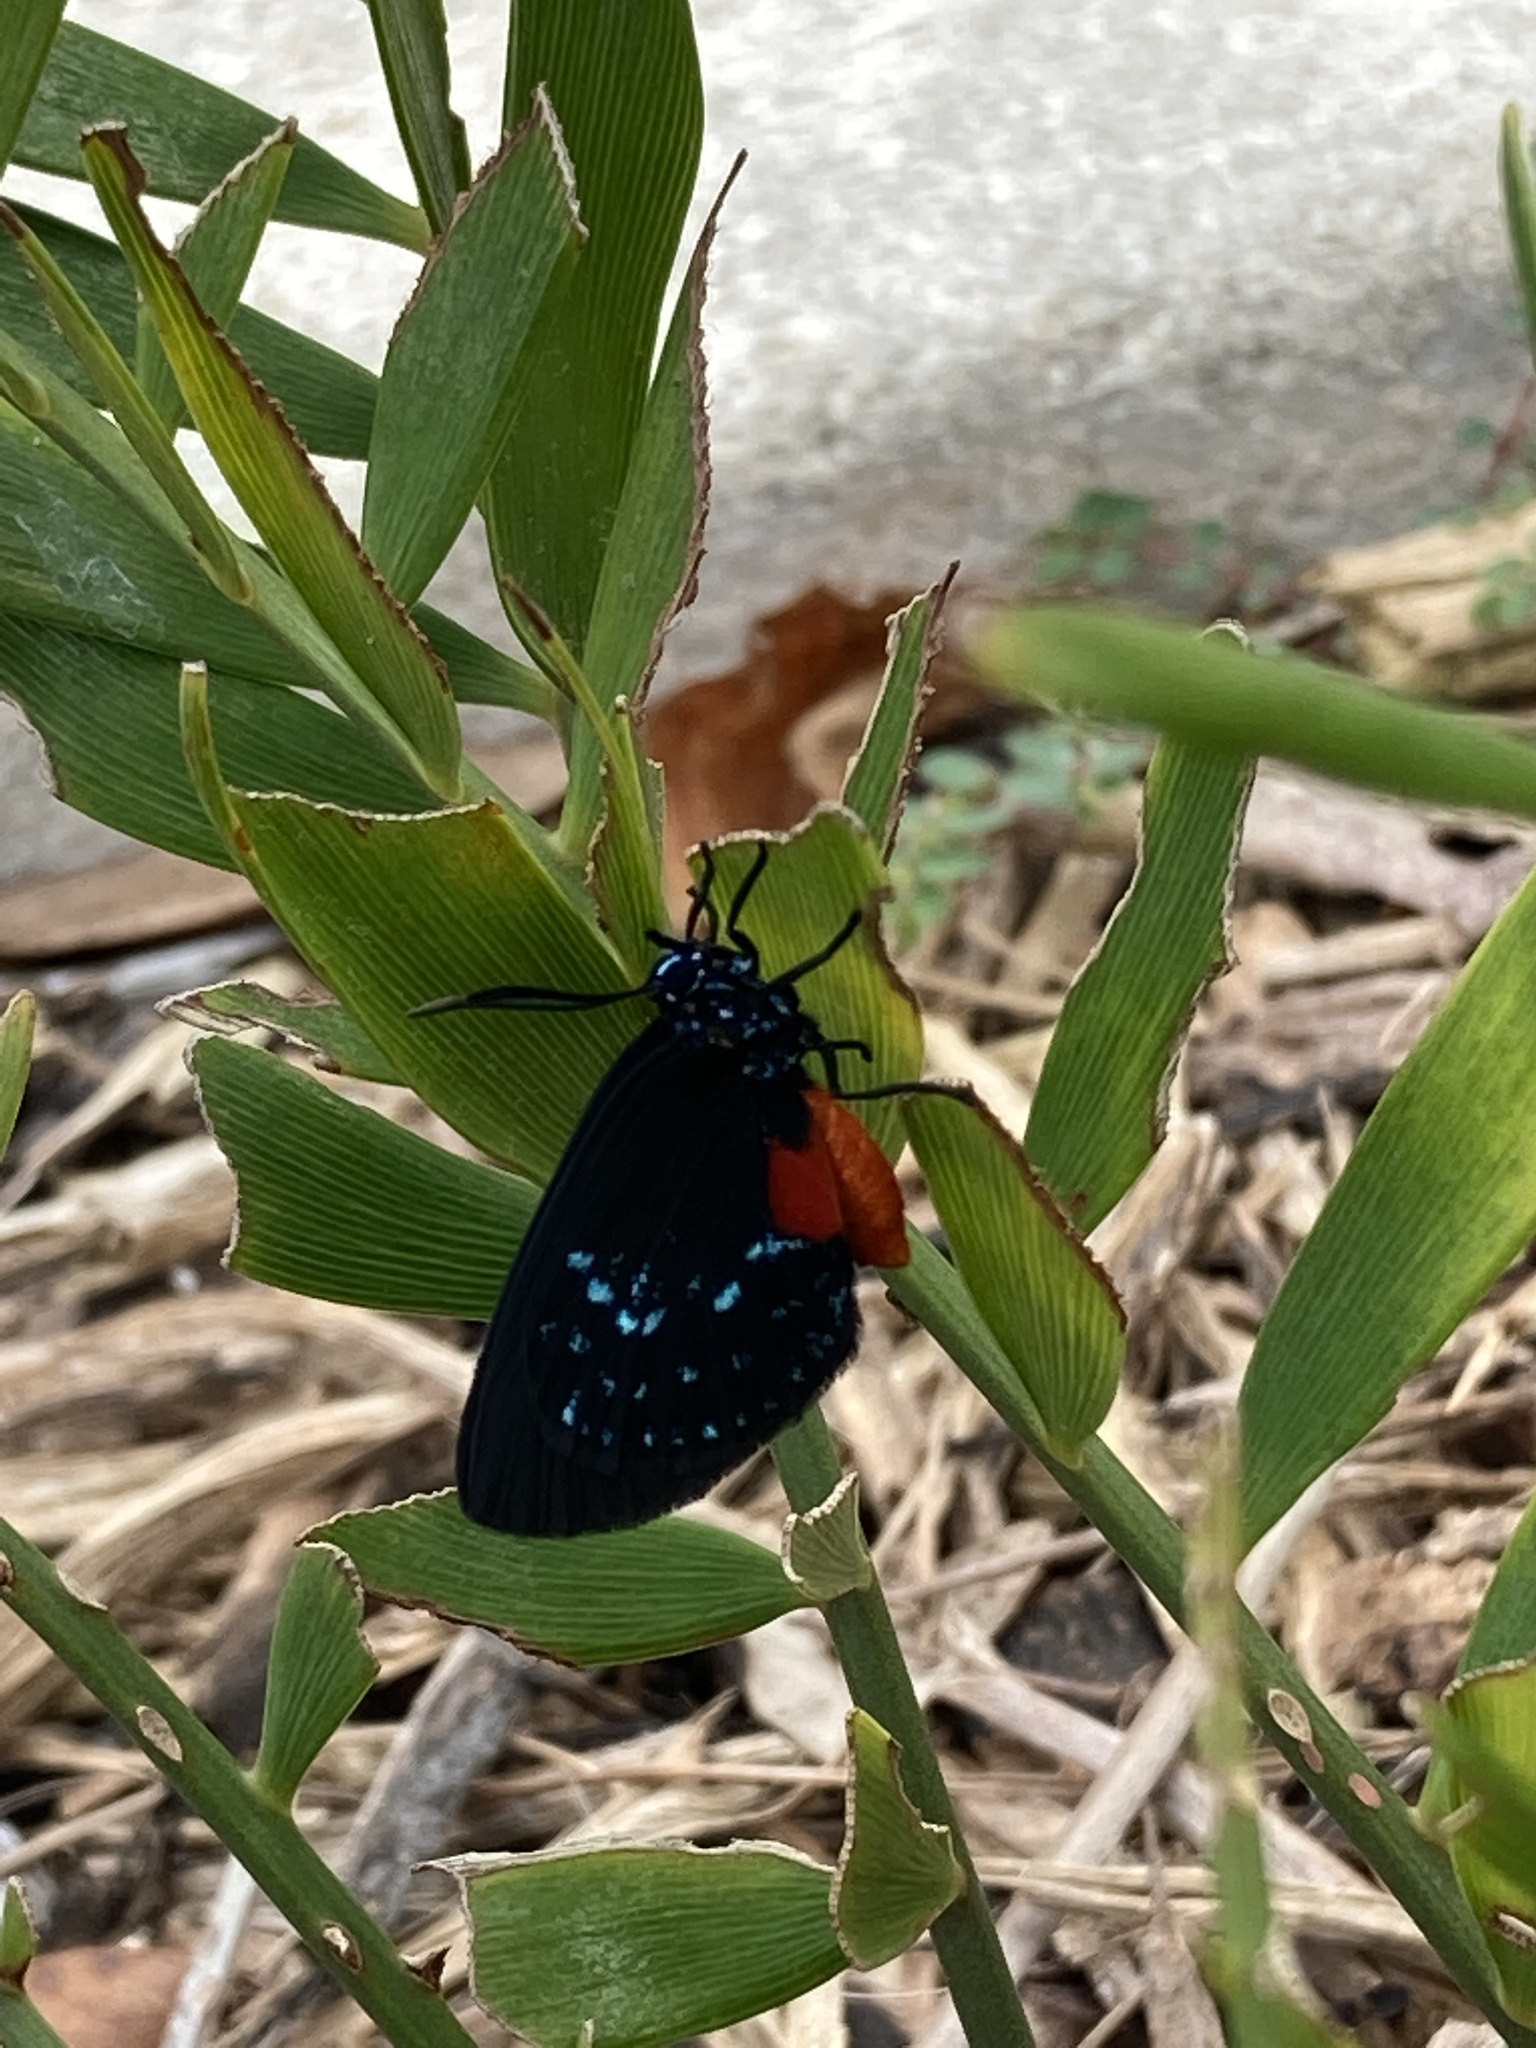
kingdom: Animalia
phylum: Arthropoda
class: Insecta
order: Lepidoptera
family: Lycaenidae
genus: Eumaeus
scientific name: Eumaeus atala
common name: Atala
